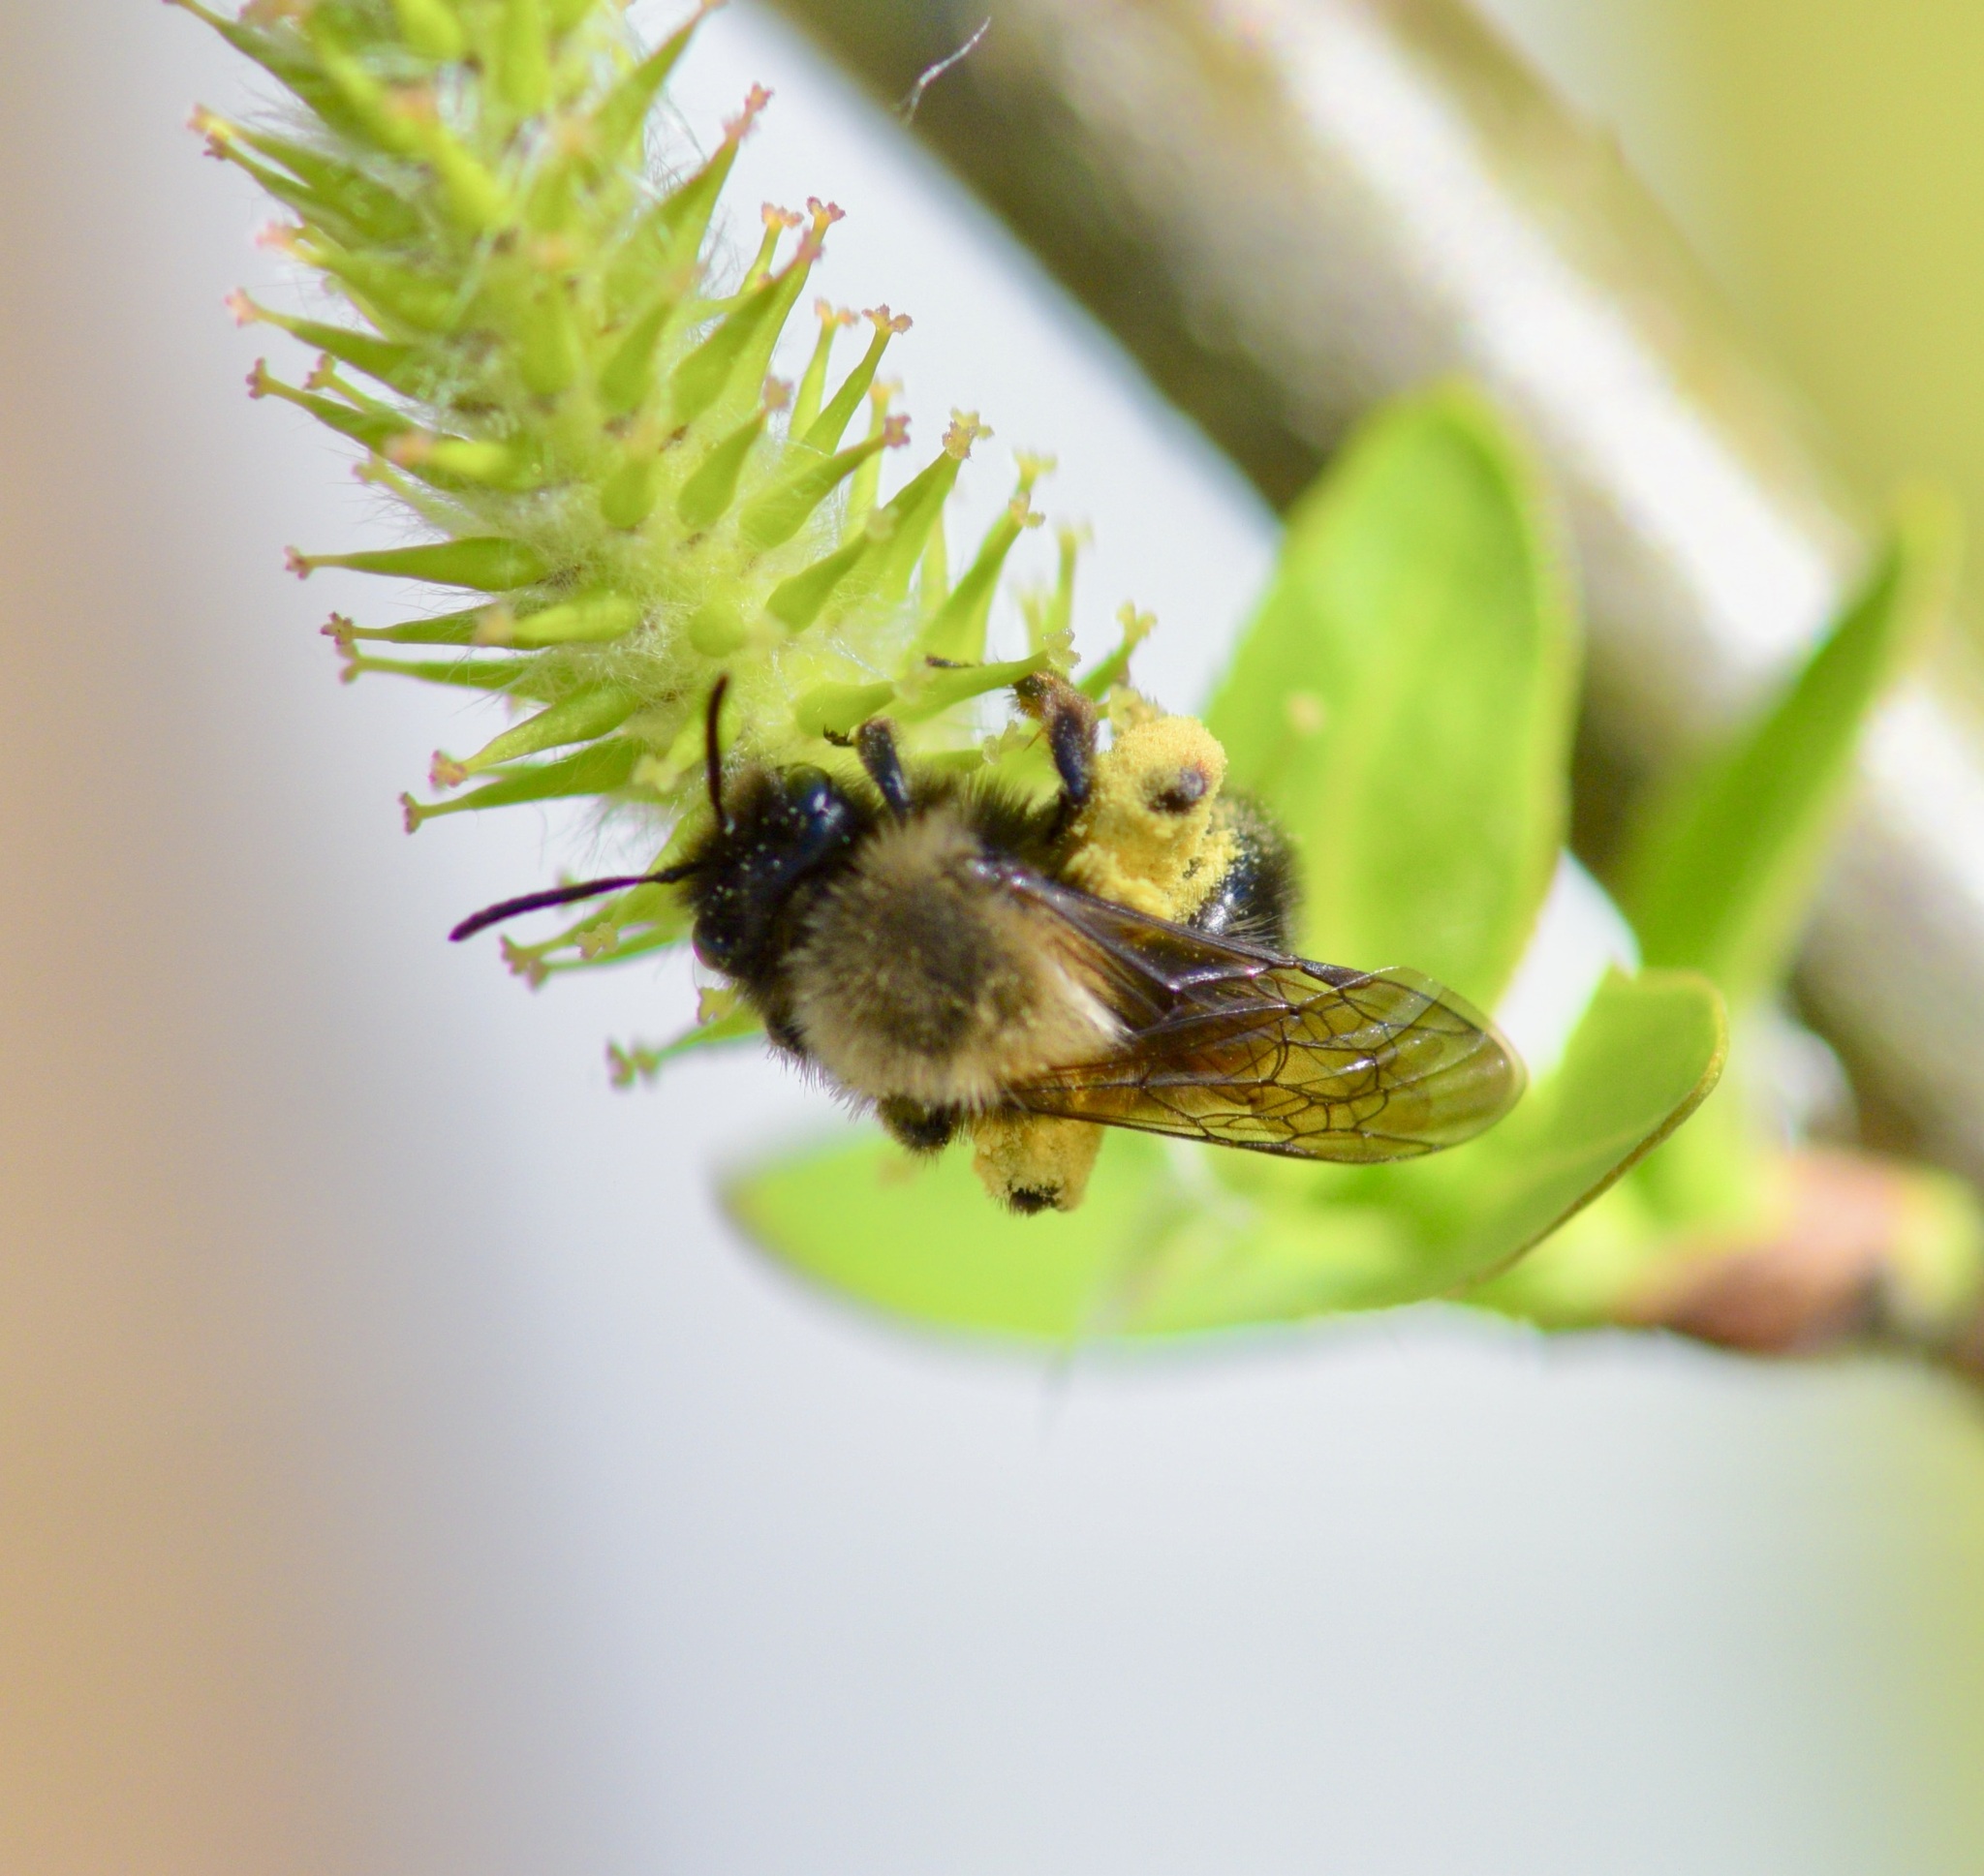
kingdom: Animalia
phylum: Arthropoda
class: Insecta
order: Hymenoptera
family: Andrenidae
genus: Andrena
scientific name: Andrena clarkella
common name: Clarke's mining bee
